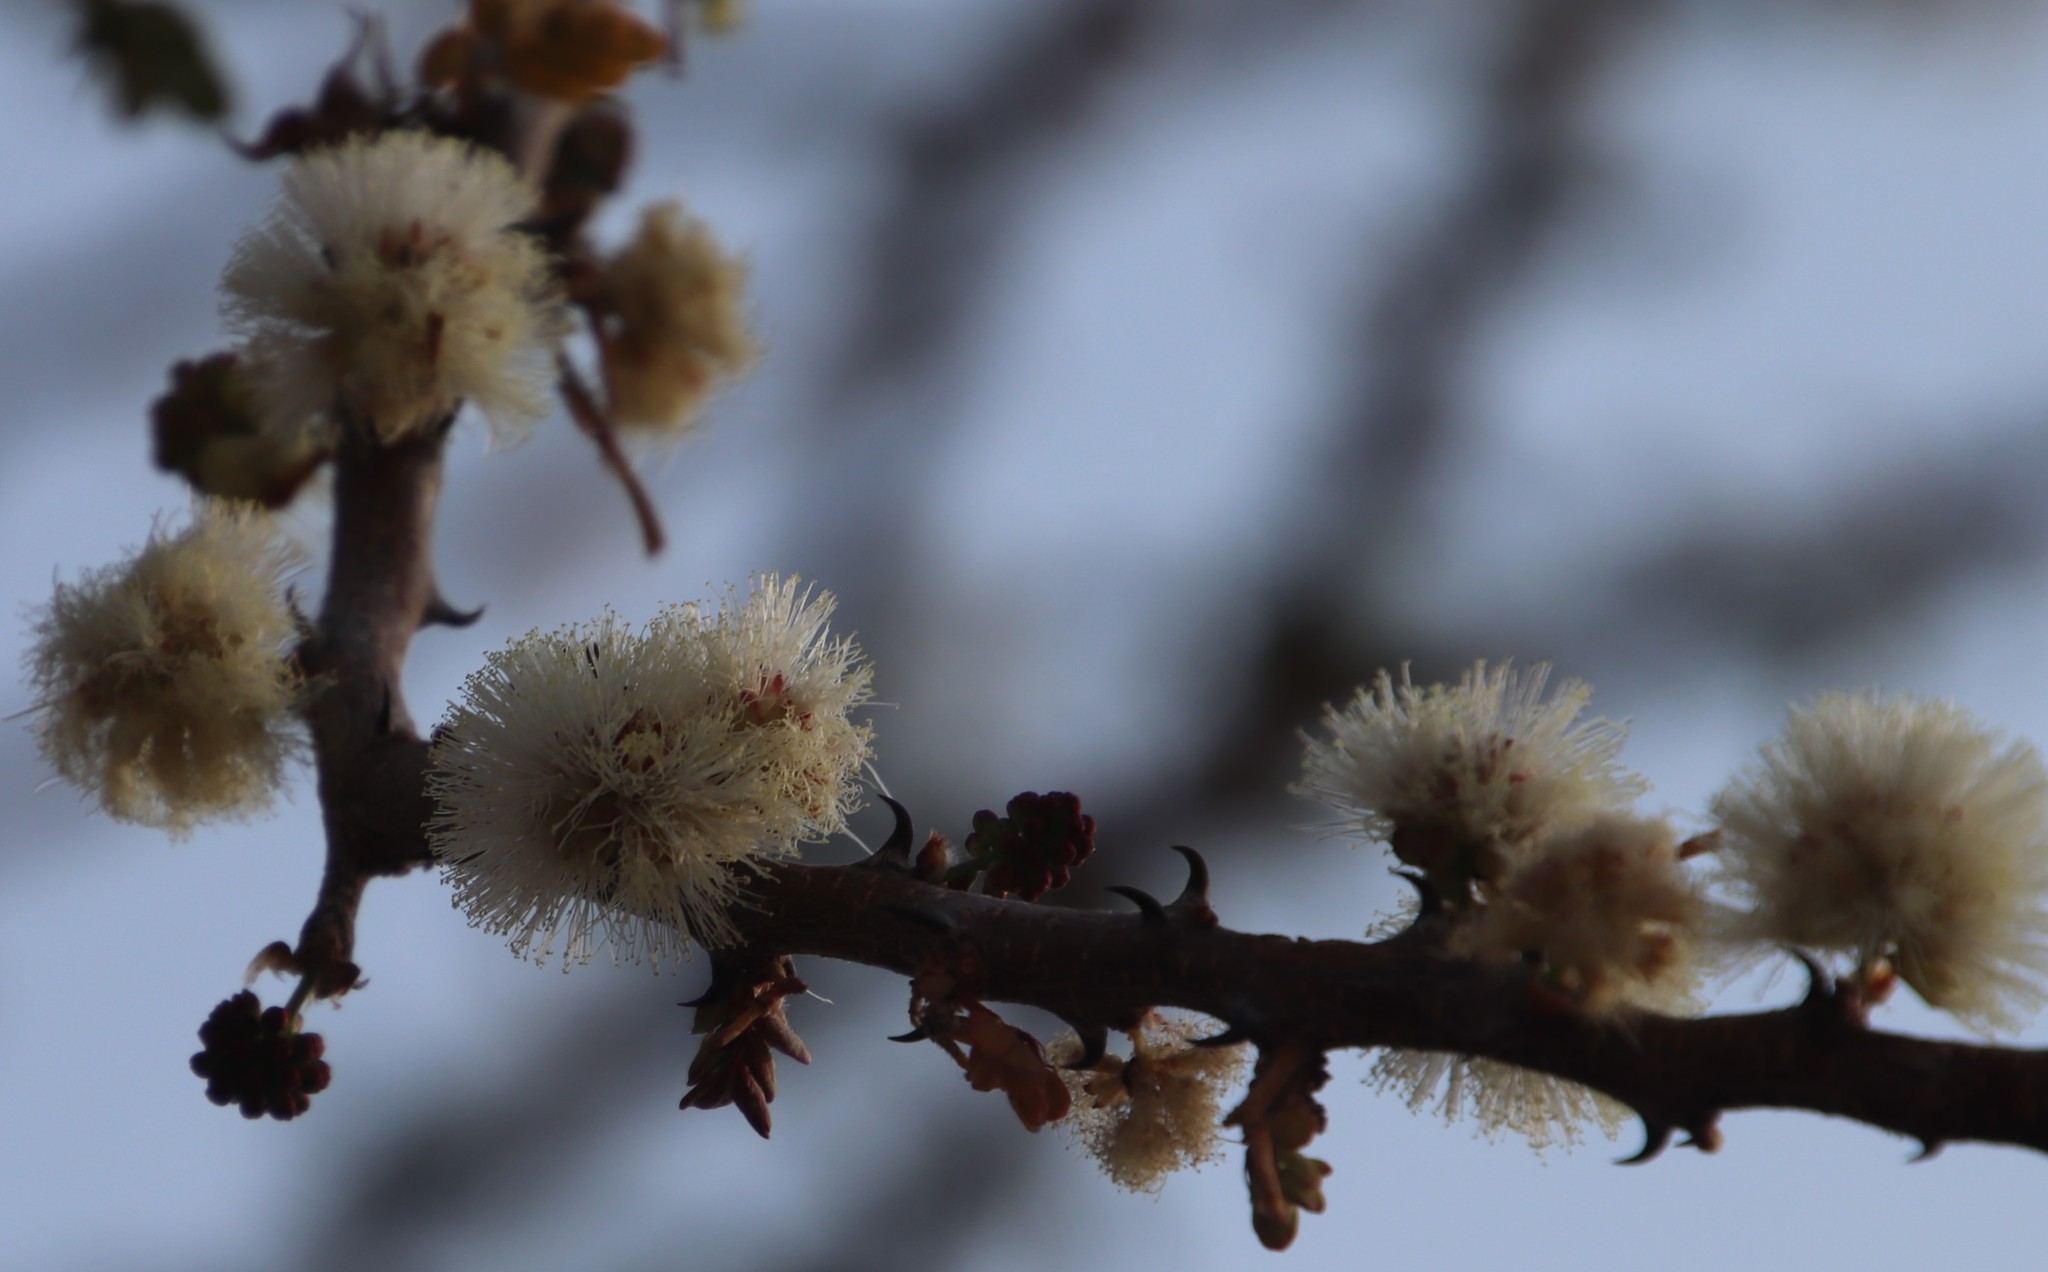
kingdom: Plantae
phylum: Tracheophyta
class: Magnoliopsida
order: Fabales
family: Fabaceae
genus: Senegalia
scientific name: Senegalia mellifera
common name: Hookthorn
